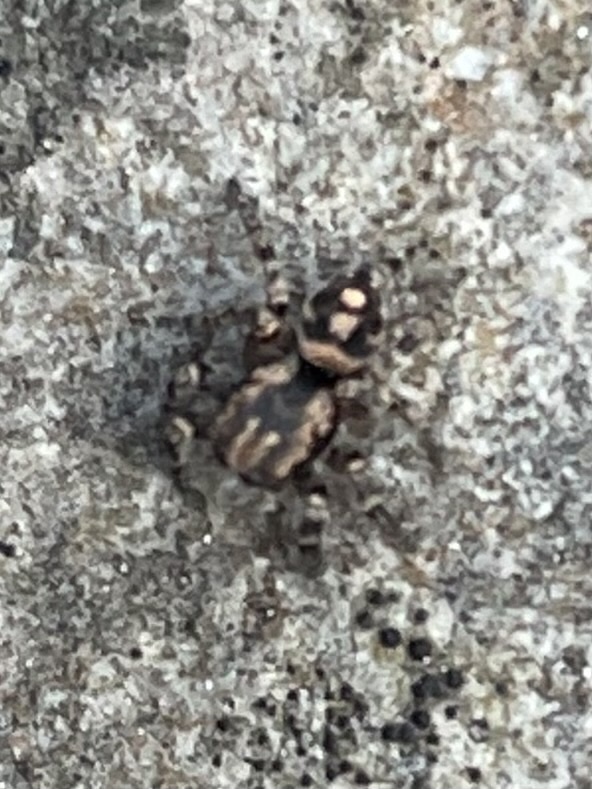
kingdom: Animalia
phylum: Arthropoda
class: Arachnida
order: Araneae
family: Salticidae
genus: Habronattus
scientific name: Habronattus fallax
